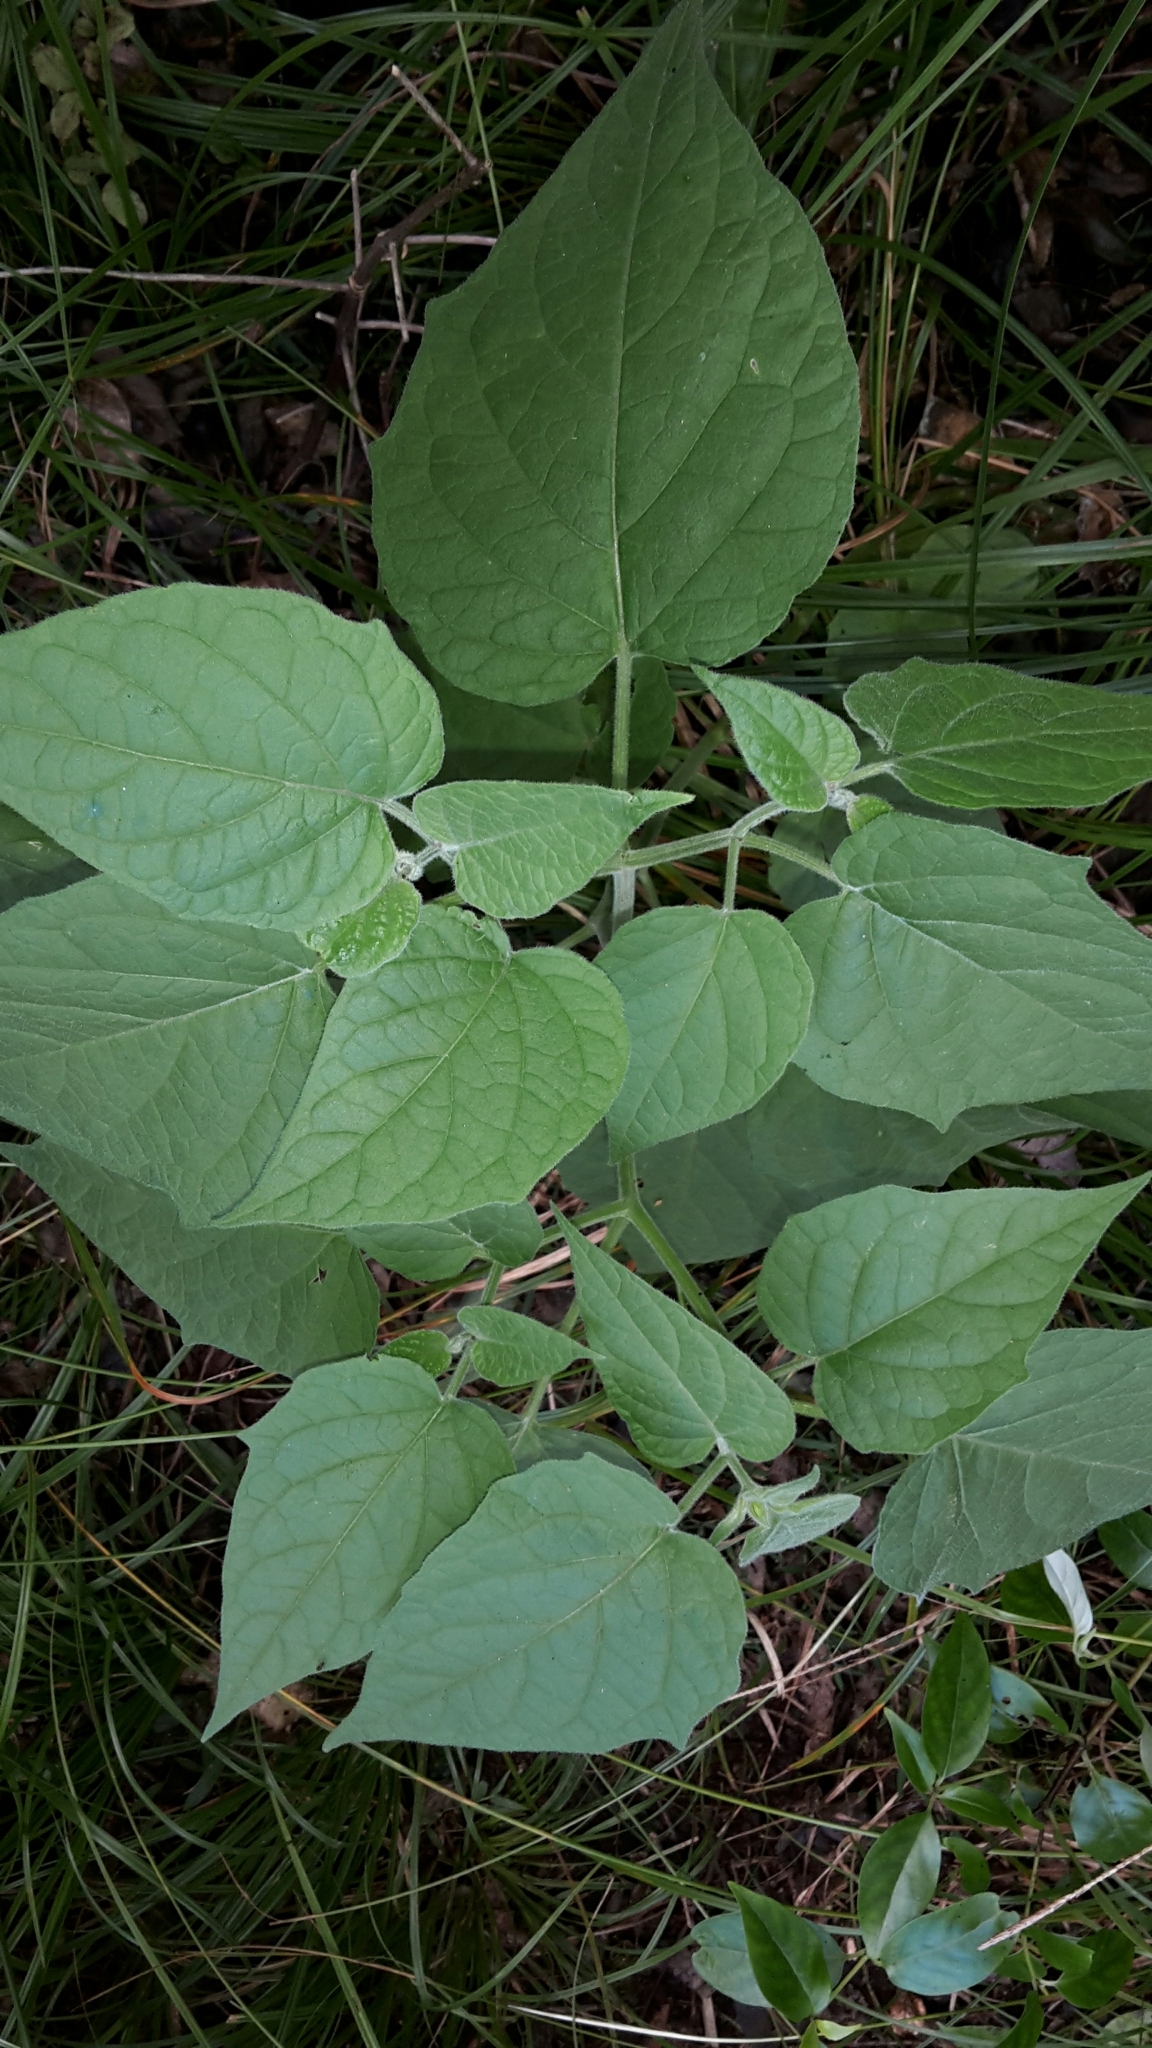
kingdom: Plantae
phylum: Tracheophyta
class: Magnoliopsida
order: Solanales
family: Solanaceae
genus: Physalis
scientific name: Physalis peruviana
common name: Cape-gooseberry
